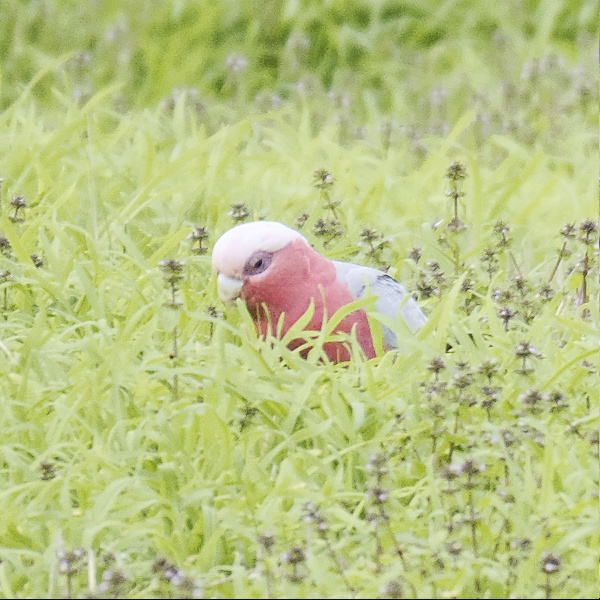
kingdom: Animalia
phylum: Chordata
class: Aves
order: Psittaciformes
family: Psittacidae
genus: Eolophus
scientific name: Eolophus roseicapilla
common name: Galah
